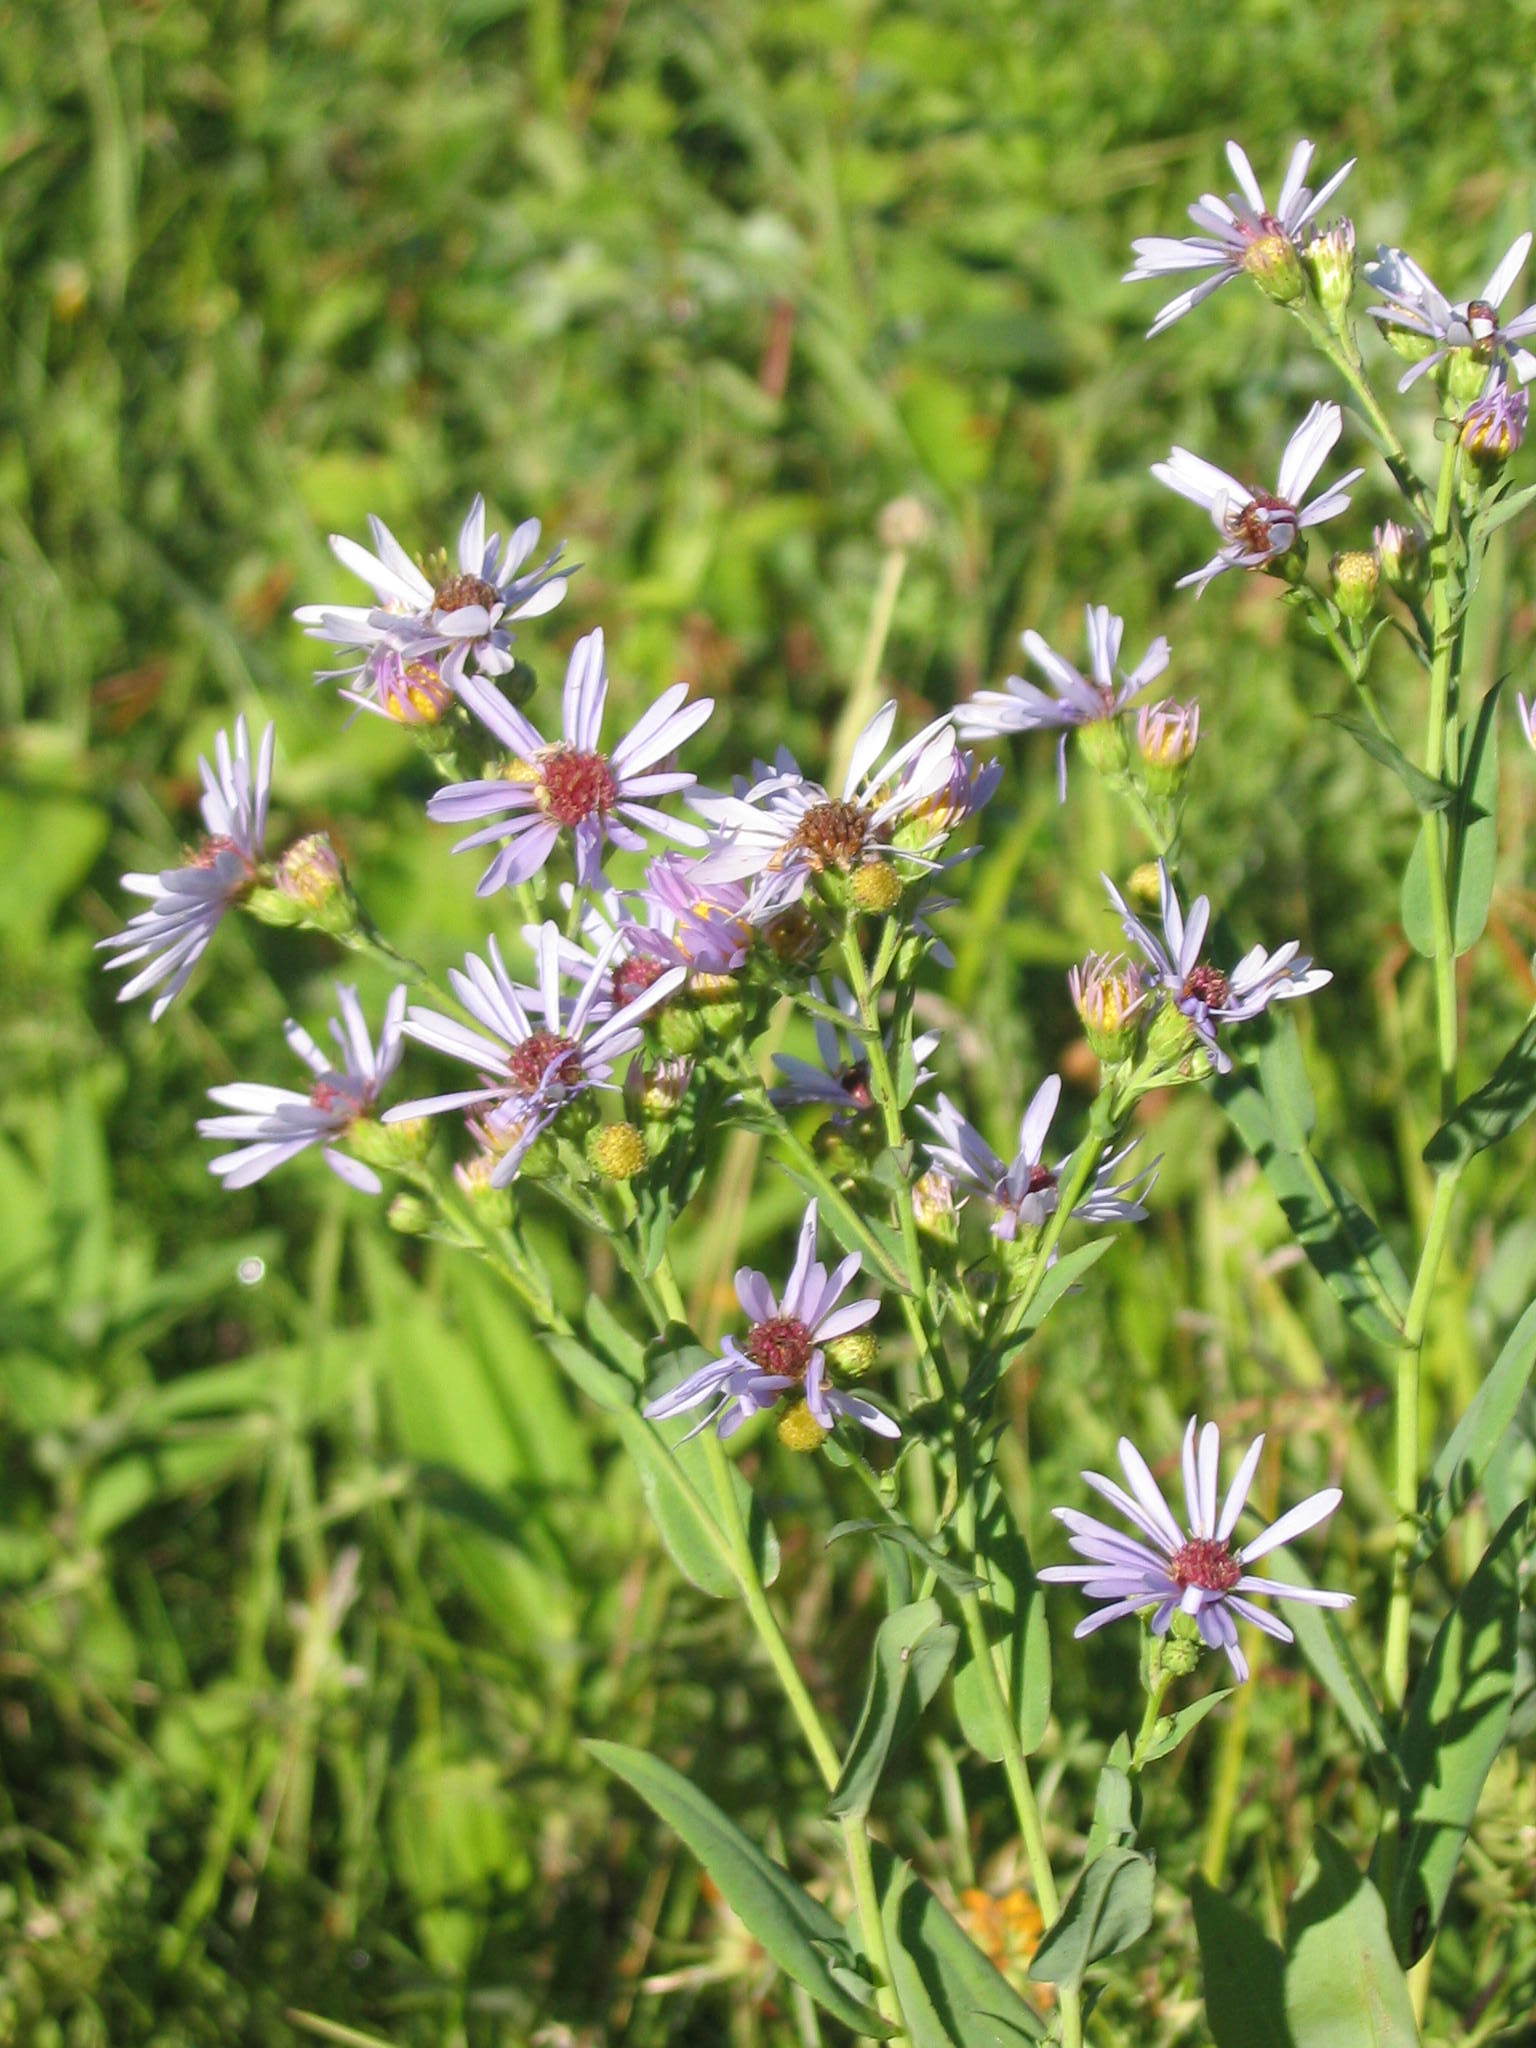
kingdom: Plantae
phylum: Tracheophyta
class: Magnoliopsida
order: Asterales
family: Asteraceae
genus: Symphyotrichum
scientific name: Symphyotrichum laeve
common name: Glaucous aster
